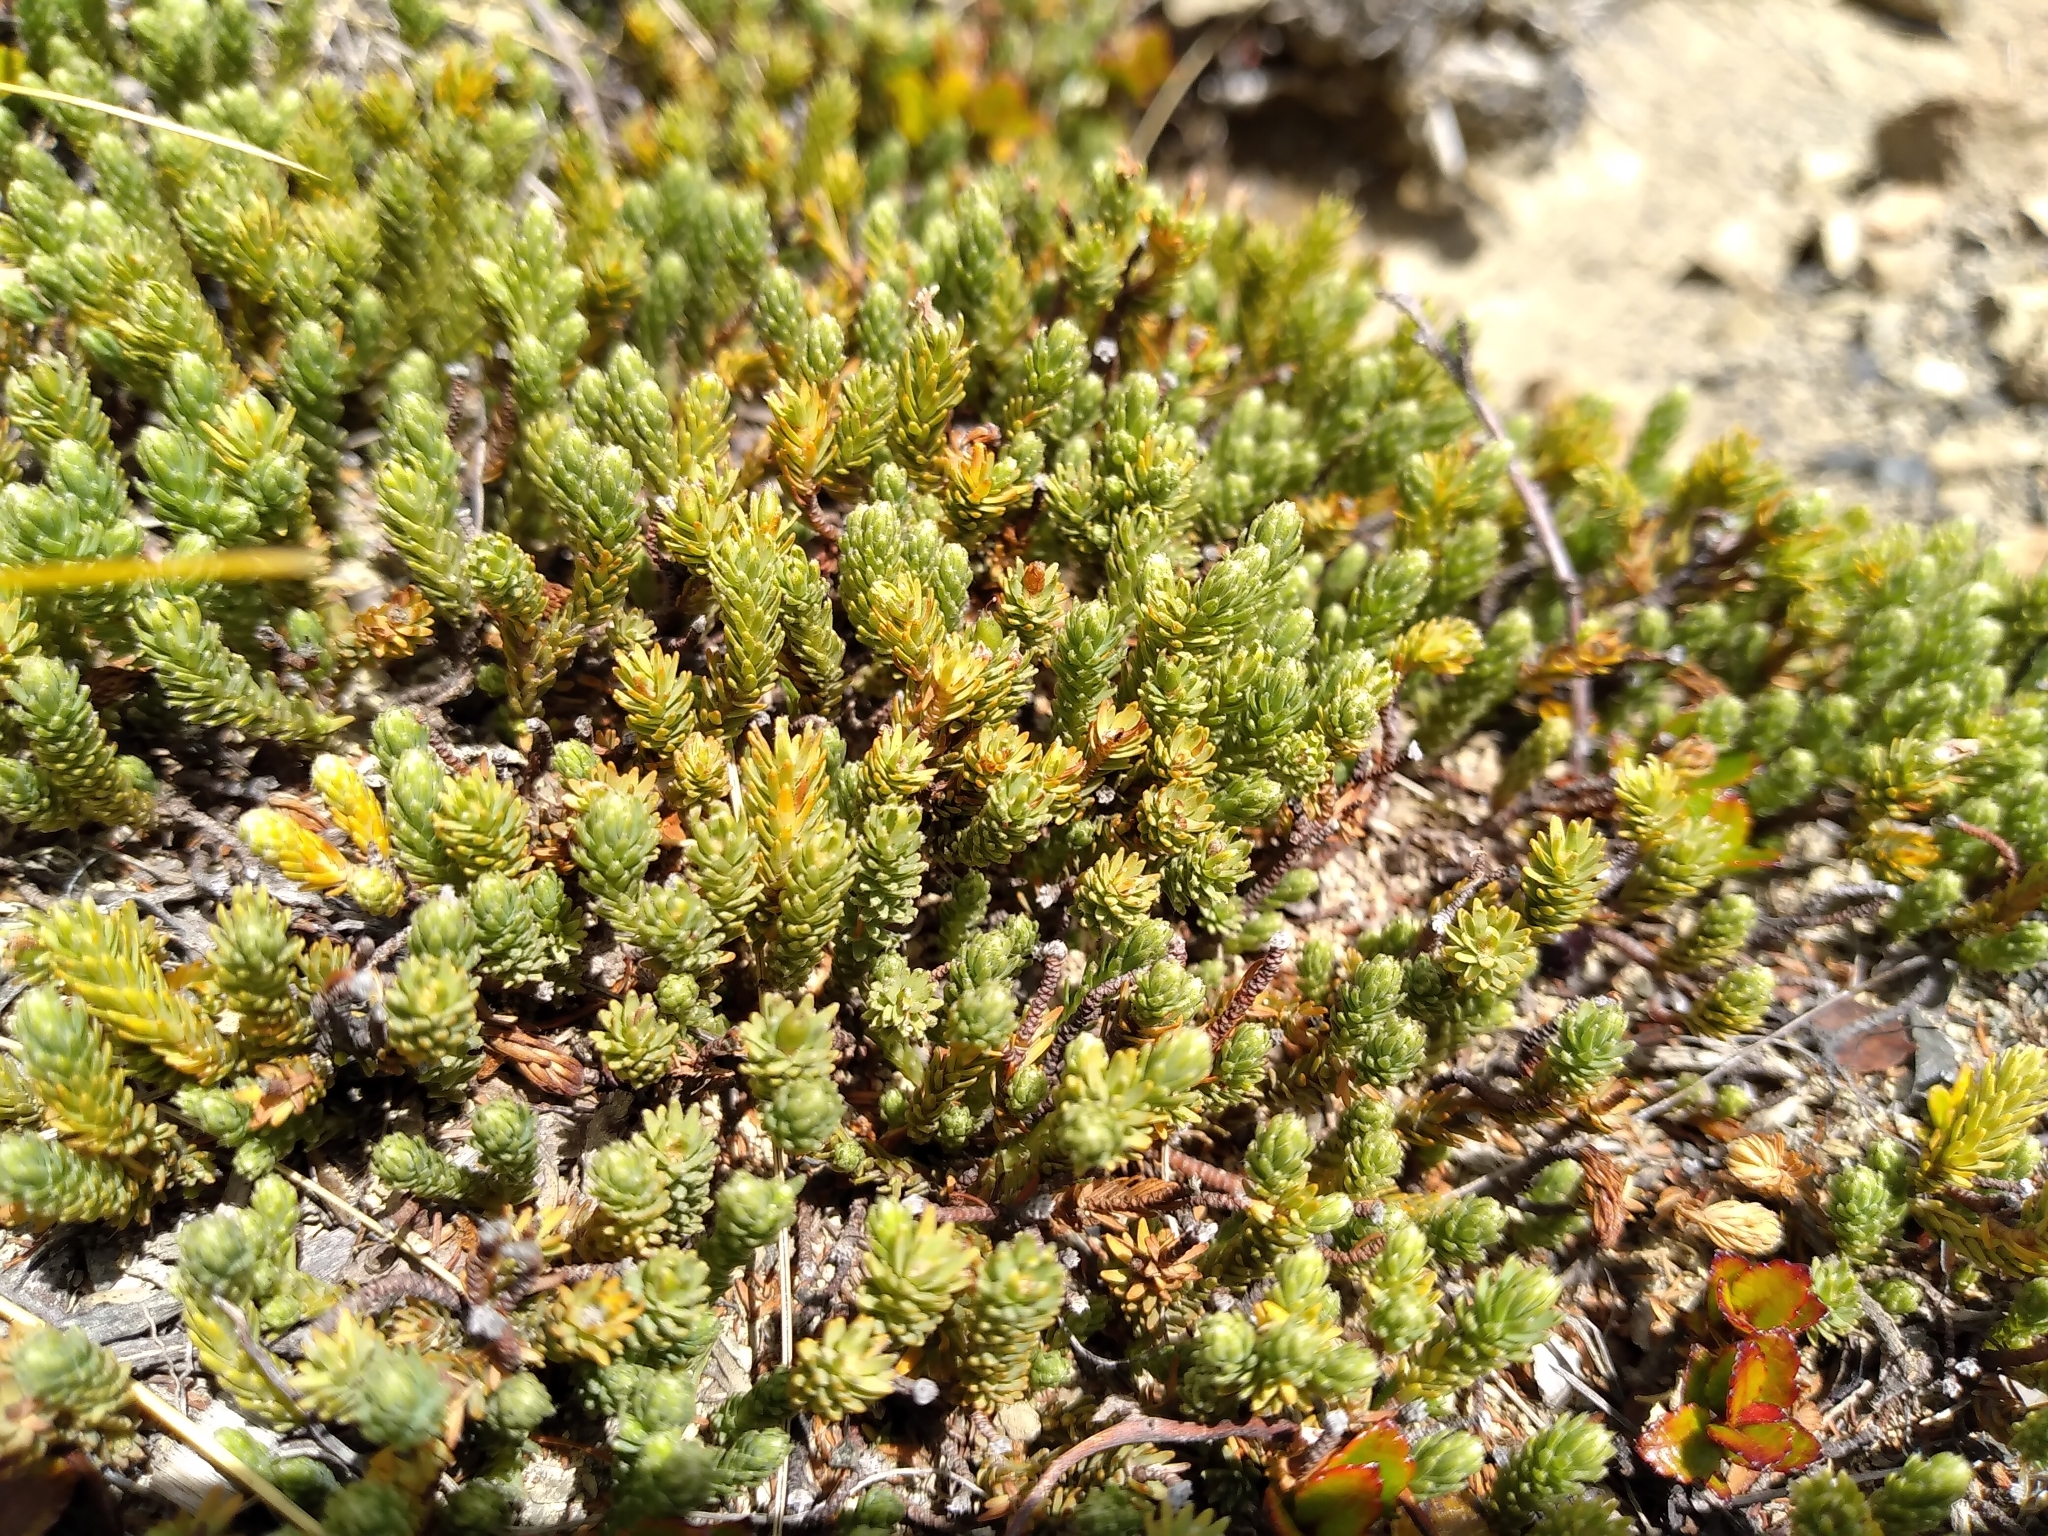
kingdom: Plantae
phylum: Tracheophyta
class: Magnoliopsida
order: Malvales
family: Thymelaeaceae
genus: Kelleria
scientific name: Kelleria dieffenbachii
